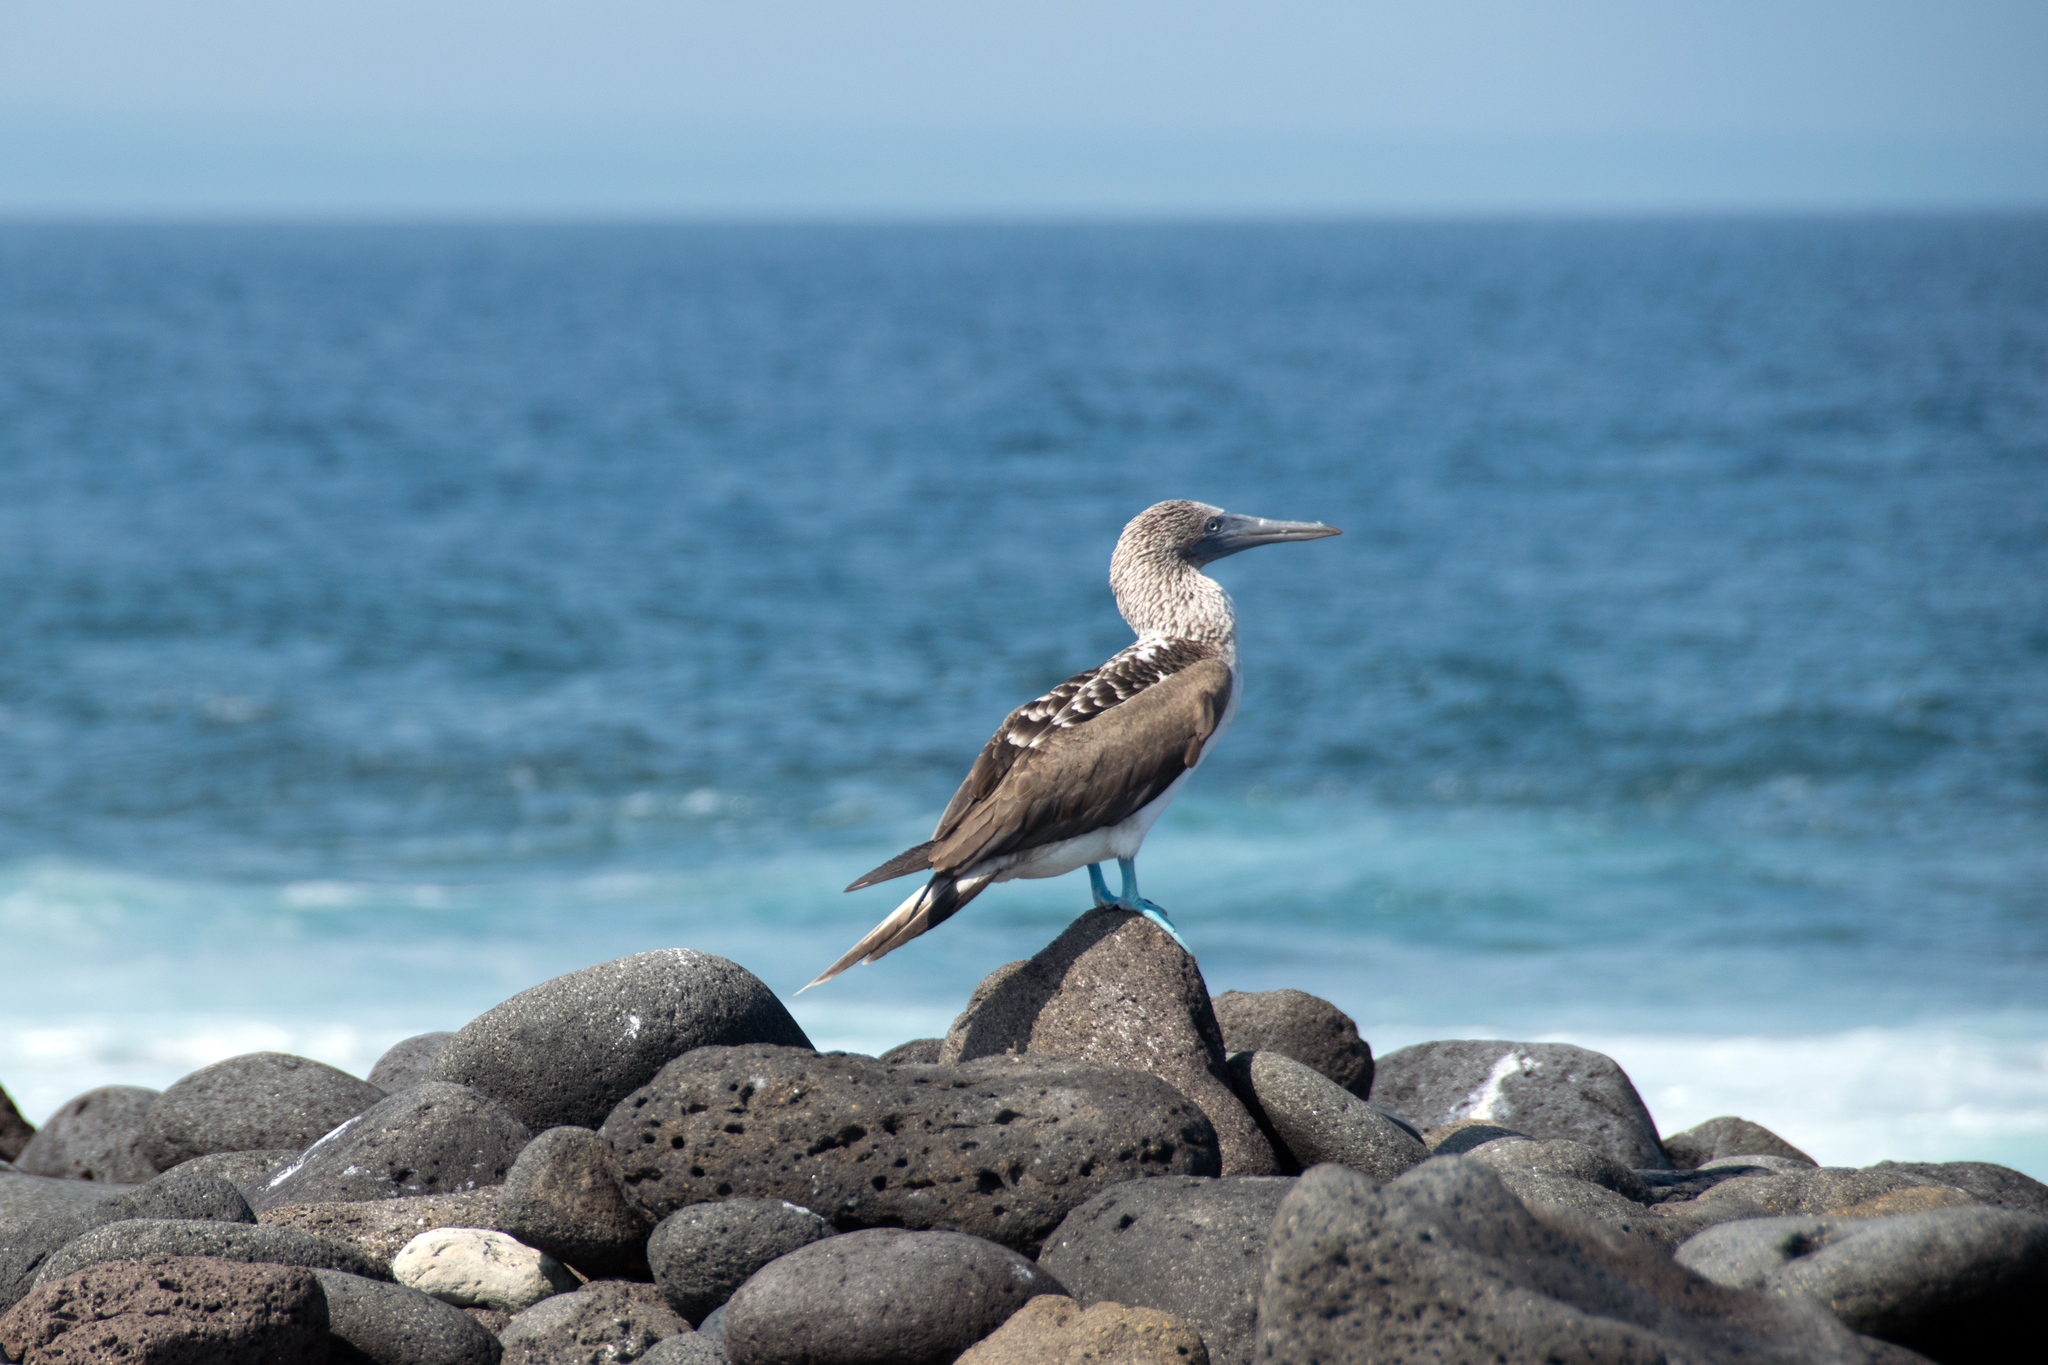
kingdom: Animalia
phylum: Chordata
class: Aves
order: Suliformes
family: Sulidae
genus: Sula
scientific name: Sula nebouxii
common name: Blue-footed booby
